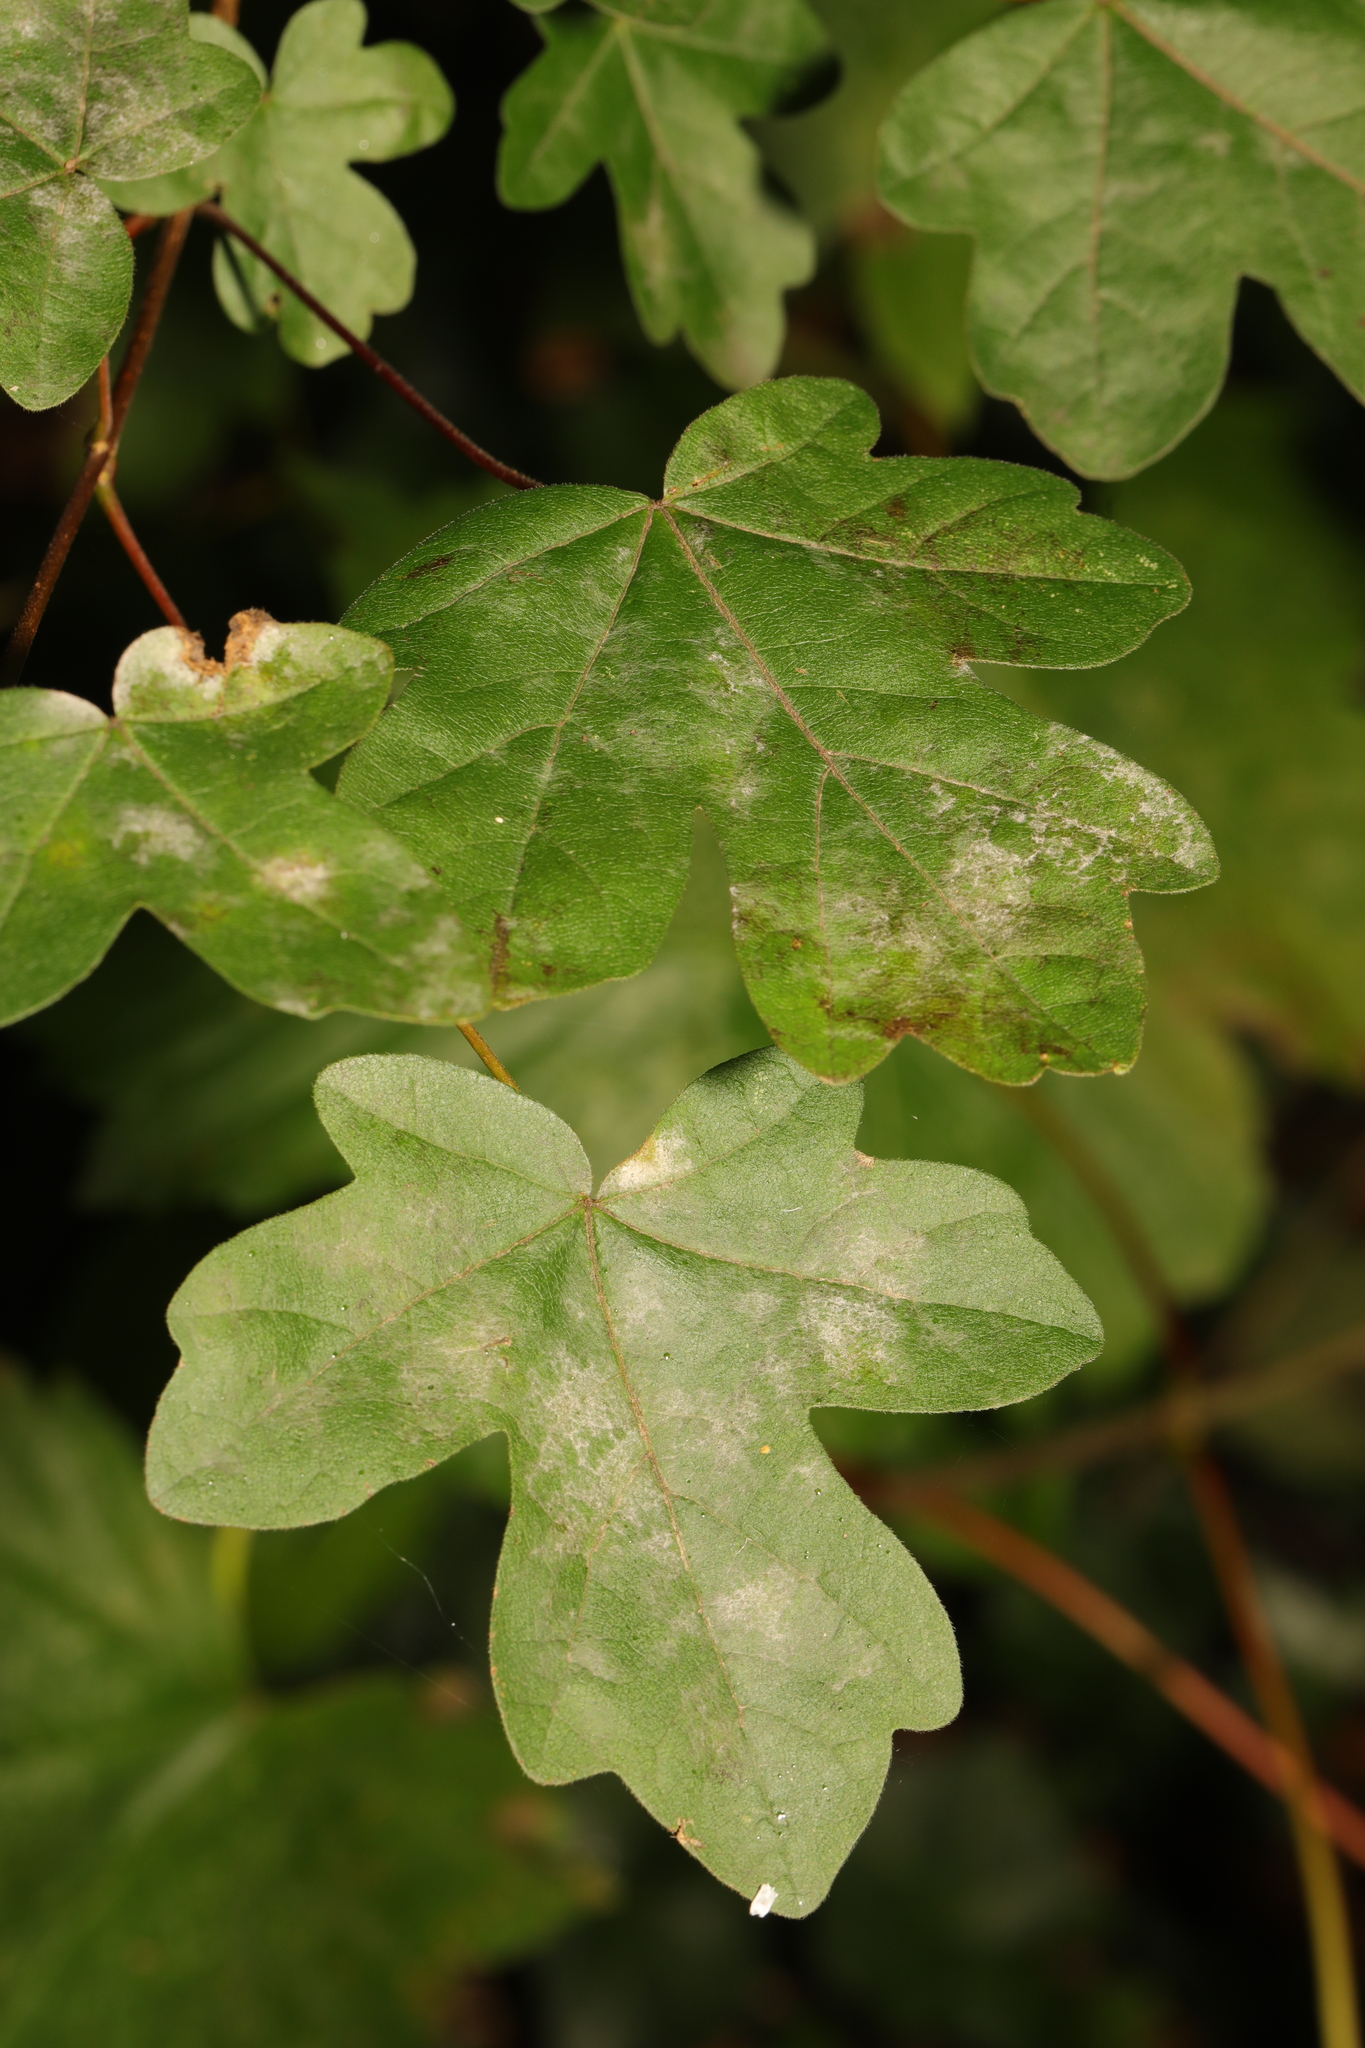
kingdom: Plantae
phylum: Tracheophyta
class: Magnoliopsida
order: Sapindales
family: Sapindaceae
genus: Acer
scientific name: Acer campestre
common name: Field maple
